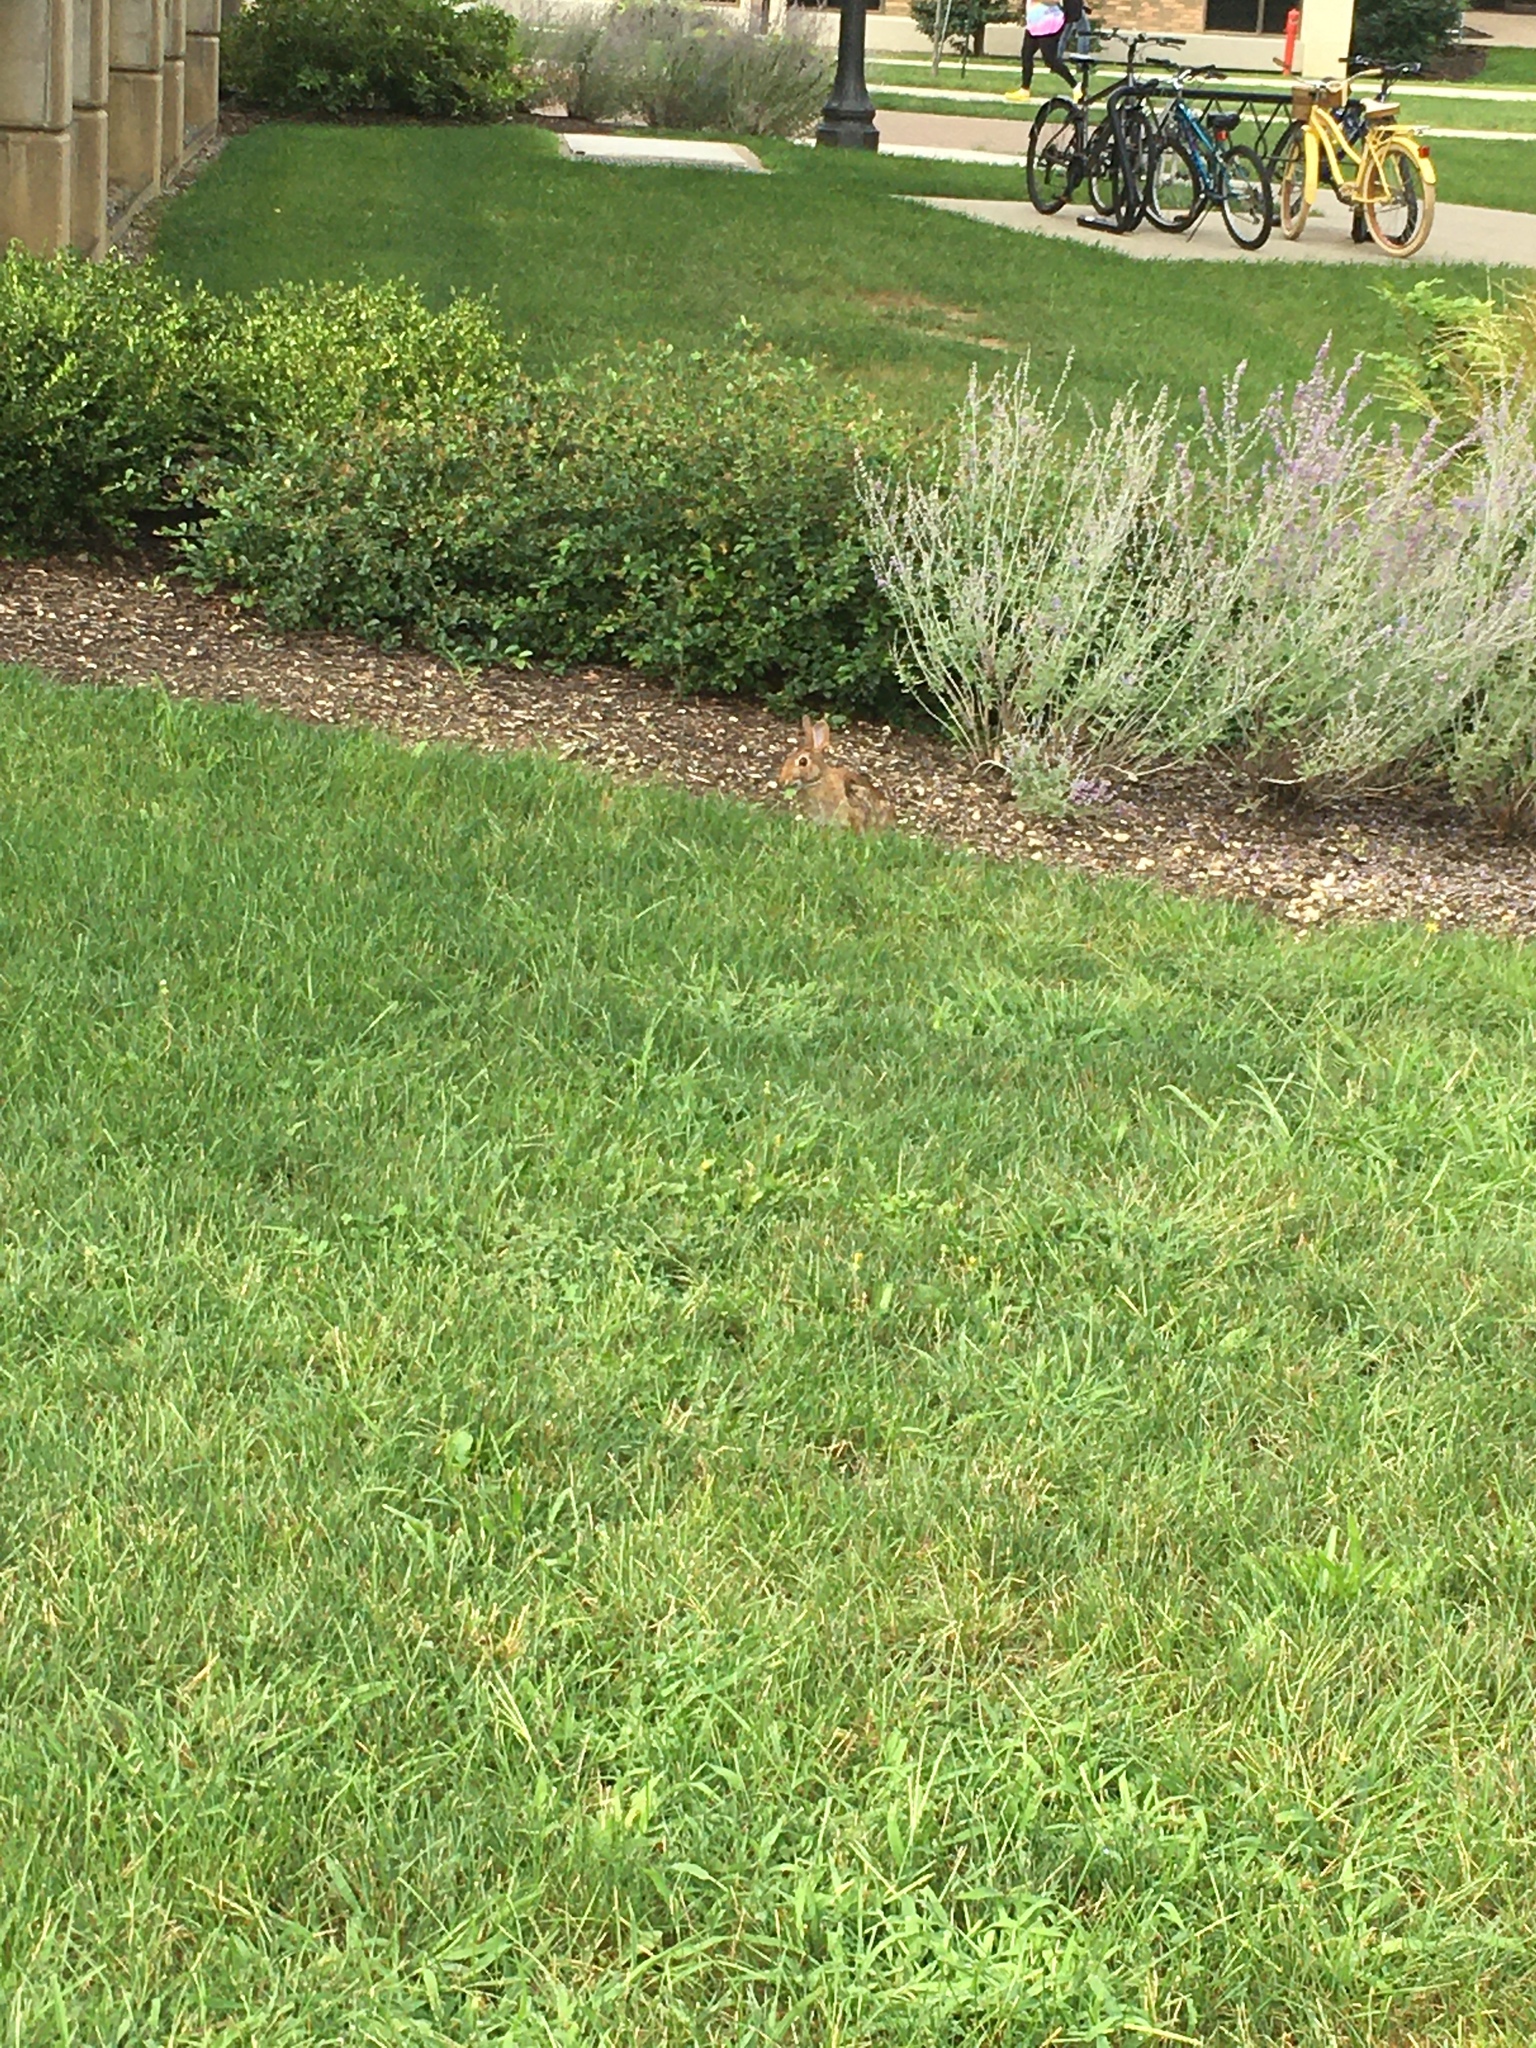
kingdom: Animalia
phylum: Chordata
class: Mammalia
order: Lagomorpha
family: Leporidae
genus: Sylvilagus
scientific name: Sylvilagus floridanus
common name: Eastern cottontail
